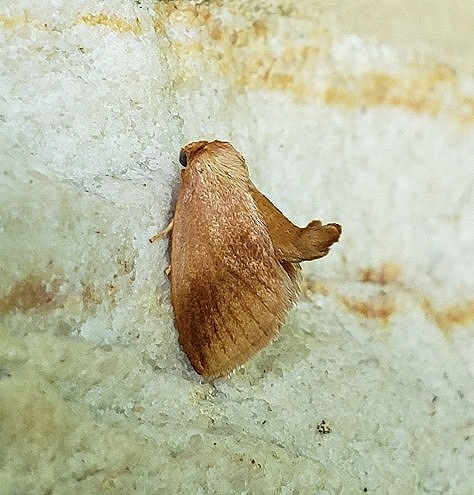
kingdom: Animalia
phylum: Arthropoda
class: Insecta
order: Lepidoptera
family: Limacodidae
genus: Tortricidia
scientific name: Tortricidia testacea
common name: Early button slug moth
